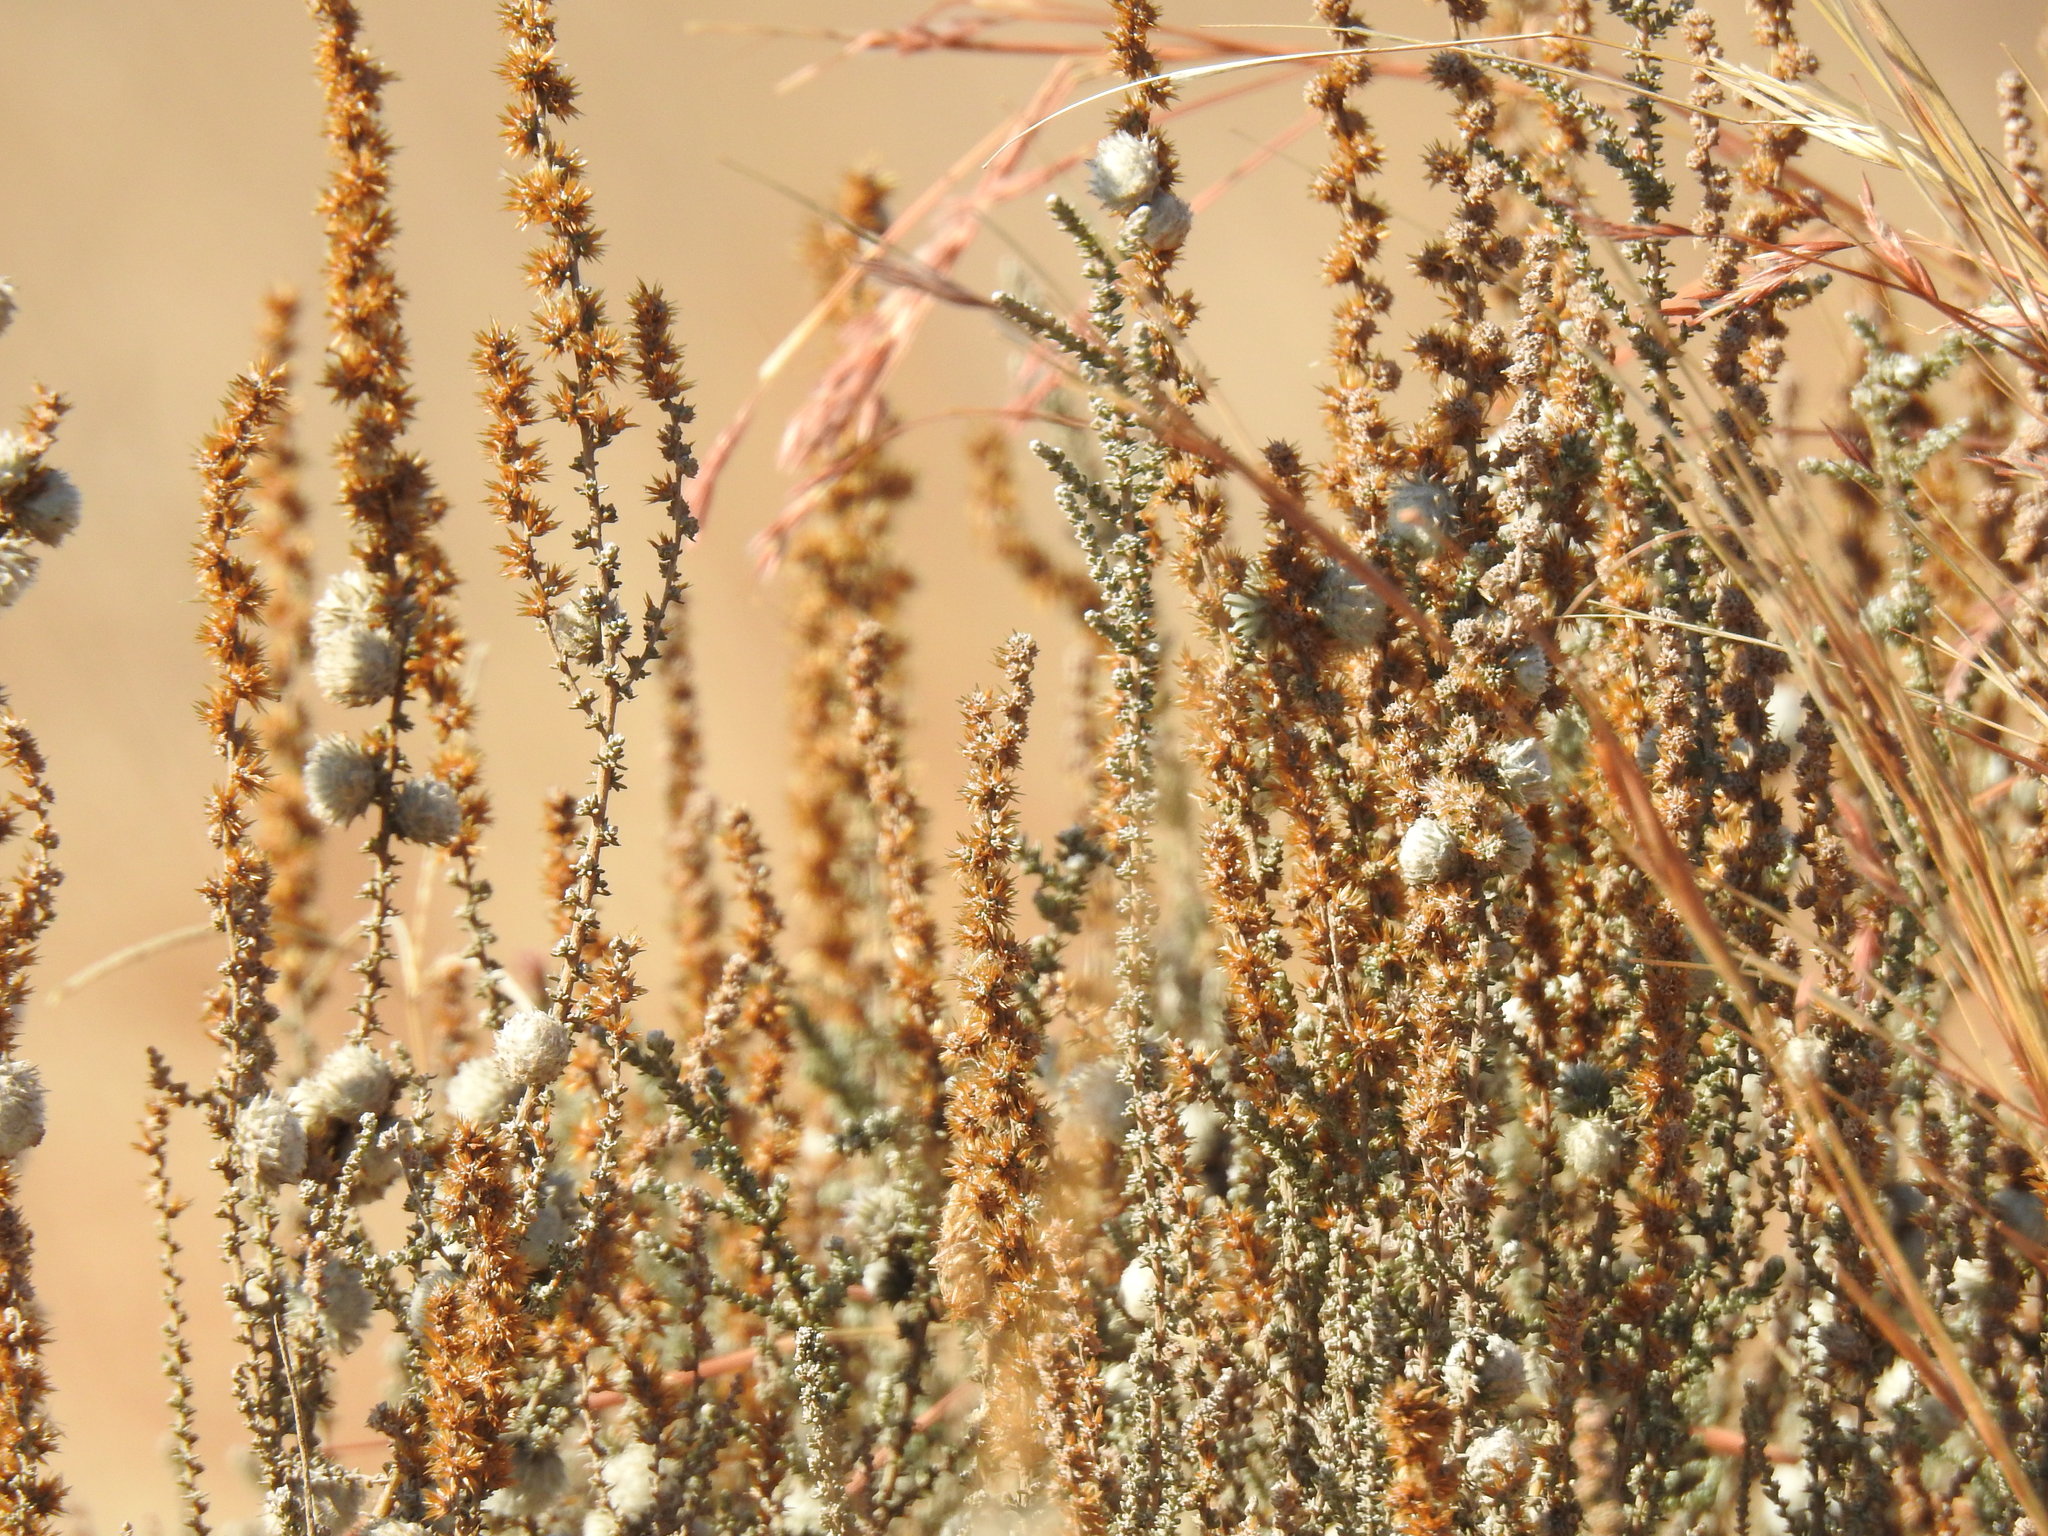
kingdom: Plantae
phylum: Tracheophyta
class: Magnoliopsida
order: Asterales
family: Asteraceae
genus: Seriphium
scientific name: Seriphium plumosum
